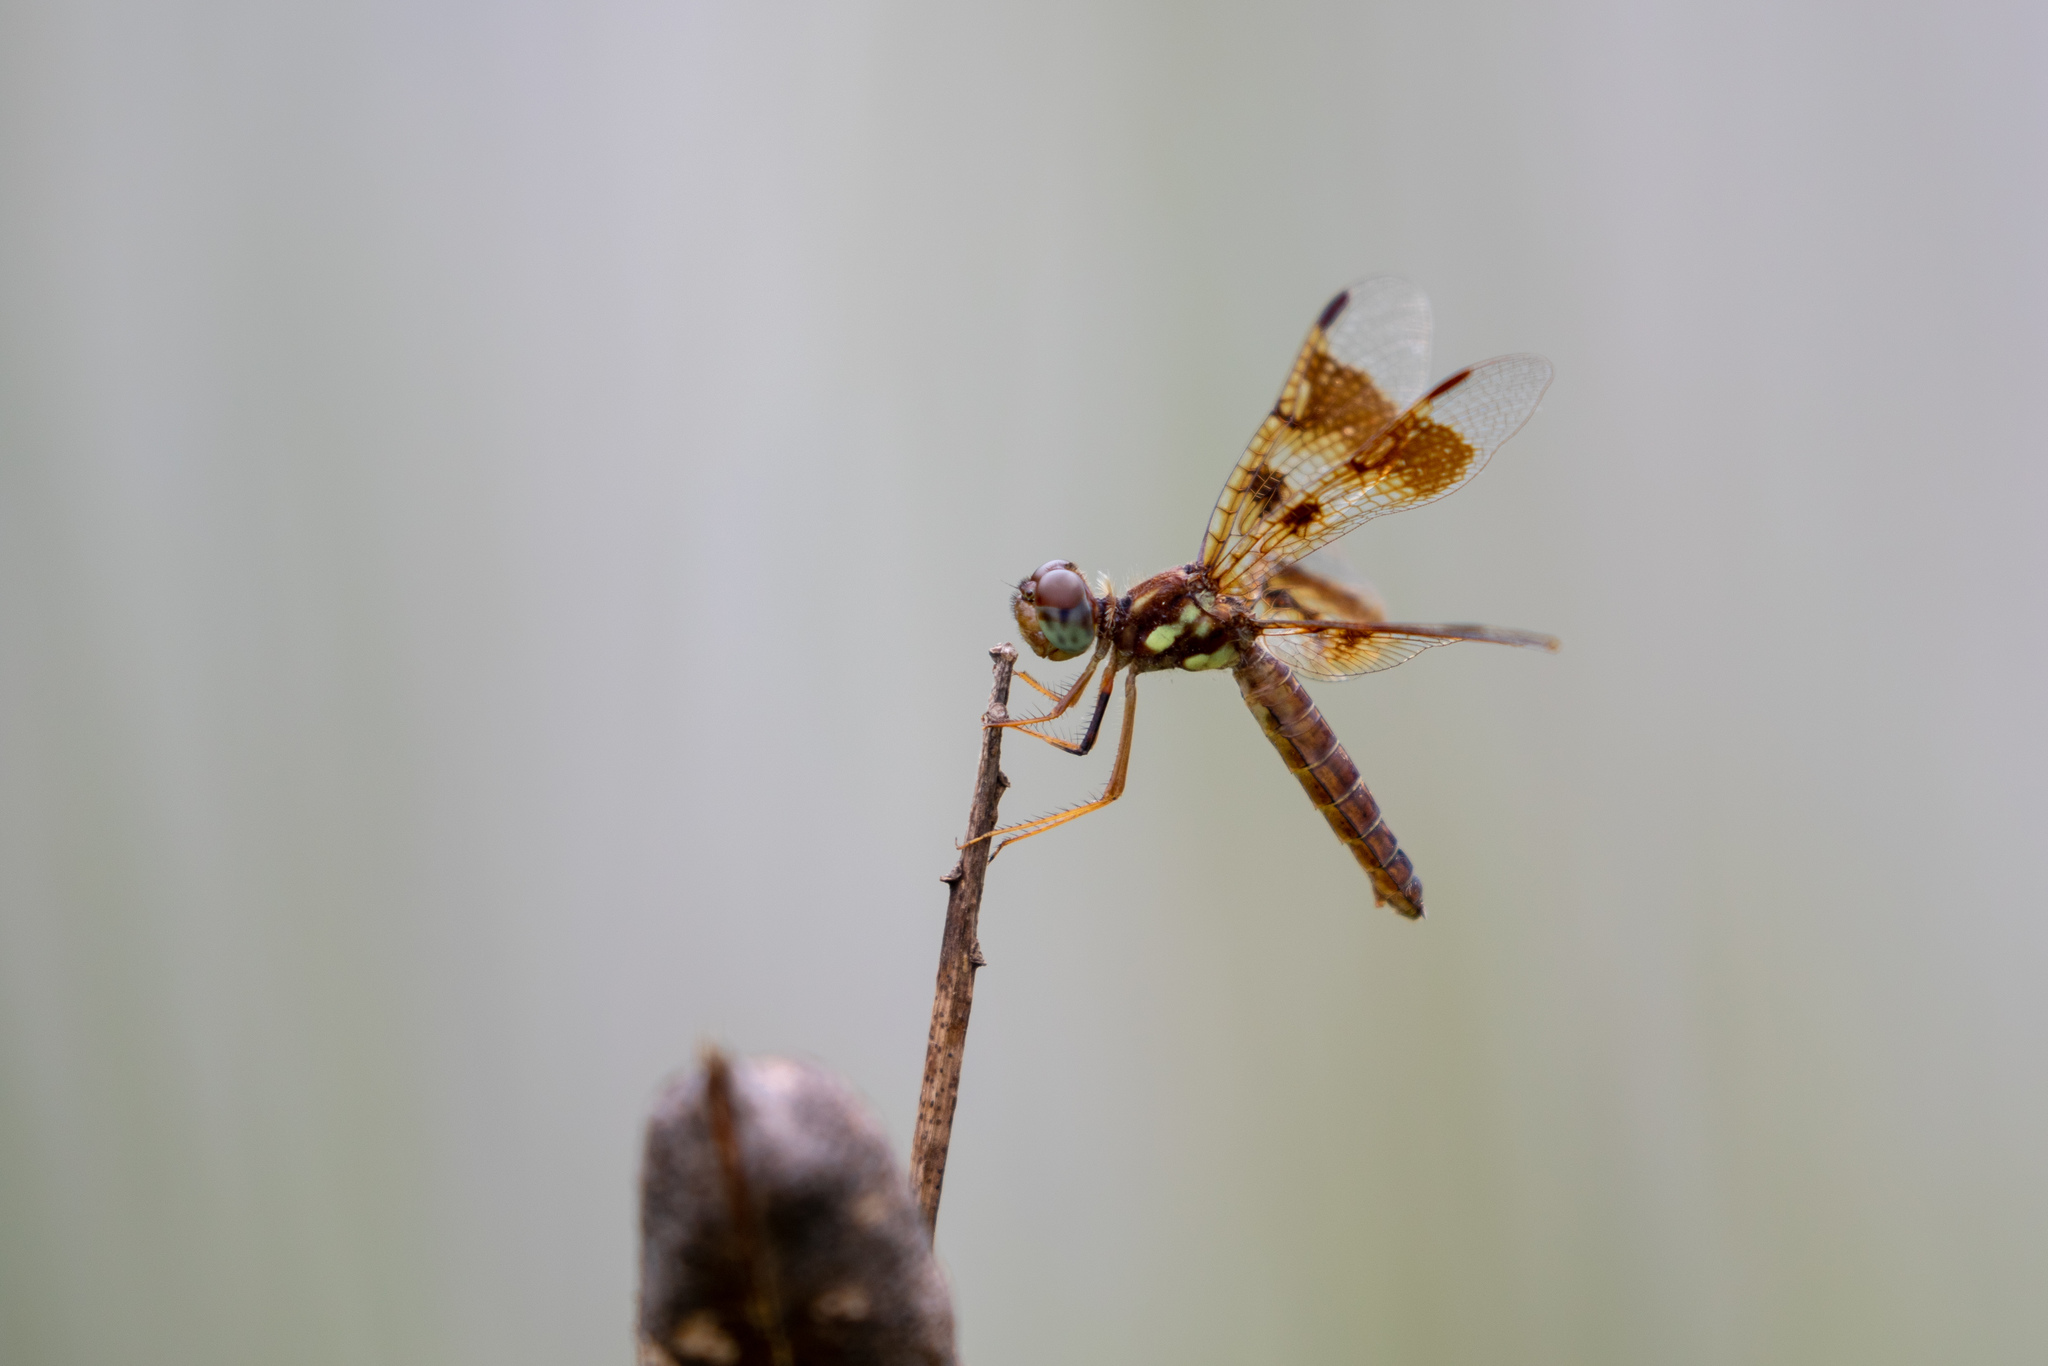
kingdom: Animalia
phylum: Arthropoda
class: Insecta
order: Odonata
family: Libellulidae
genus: Perithemis
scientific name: Perithemis tenera
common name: Eastern amberwing
